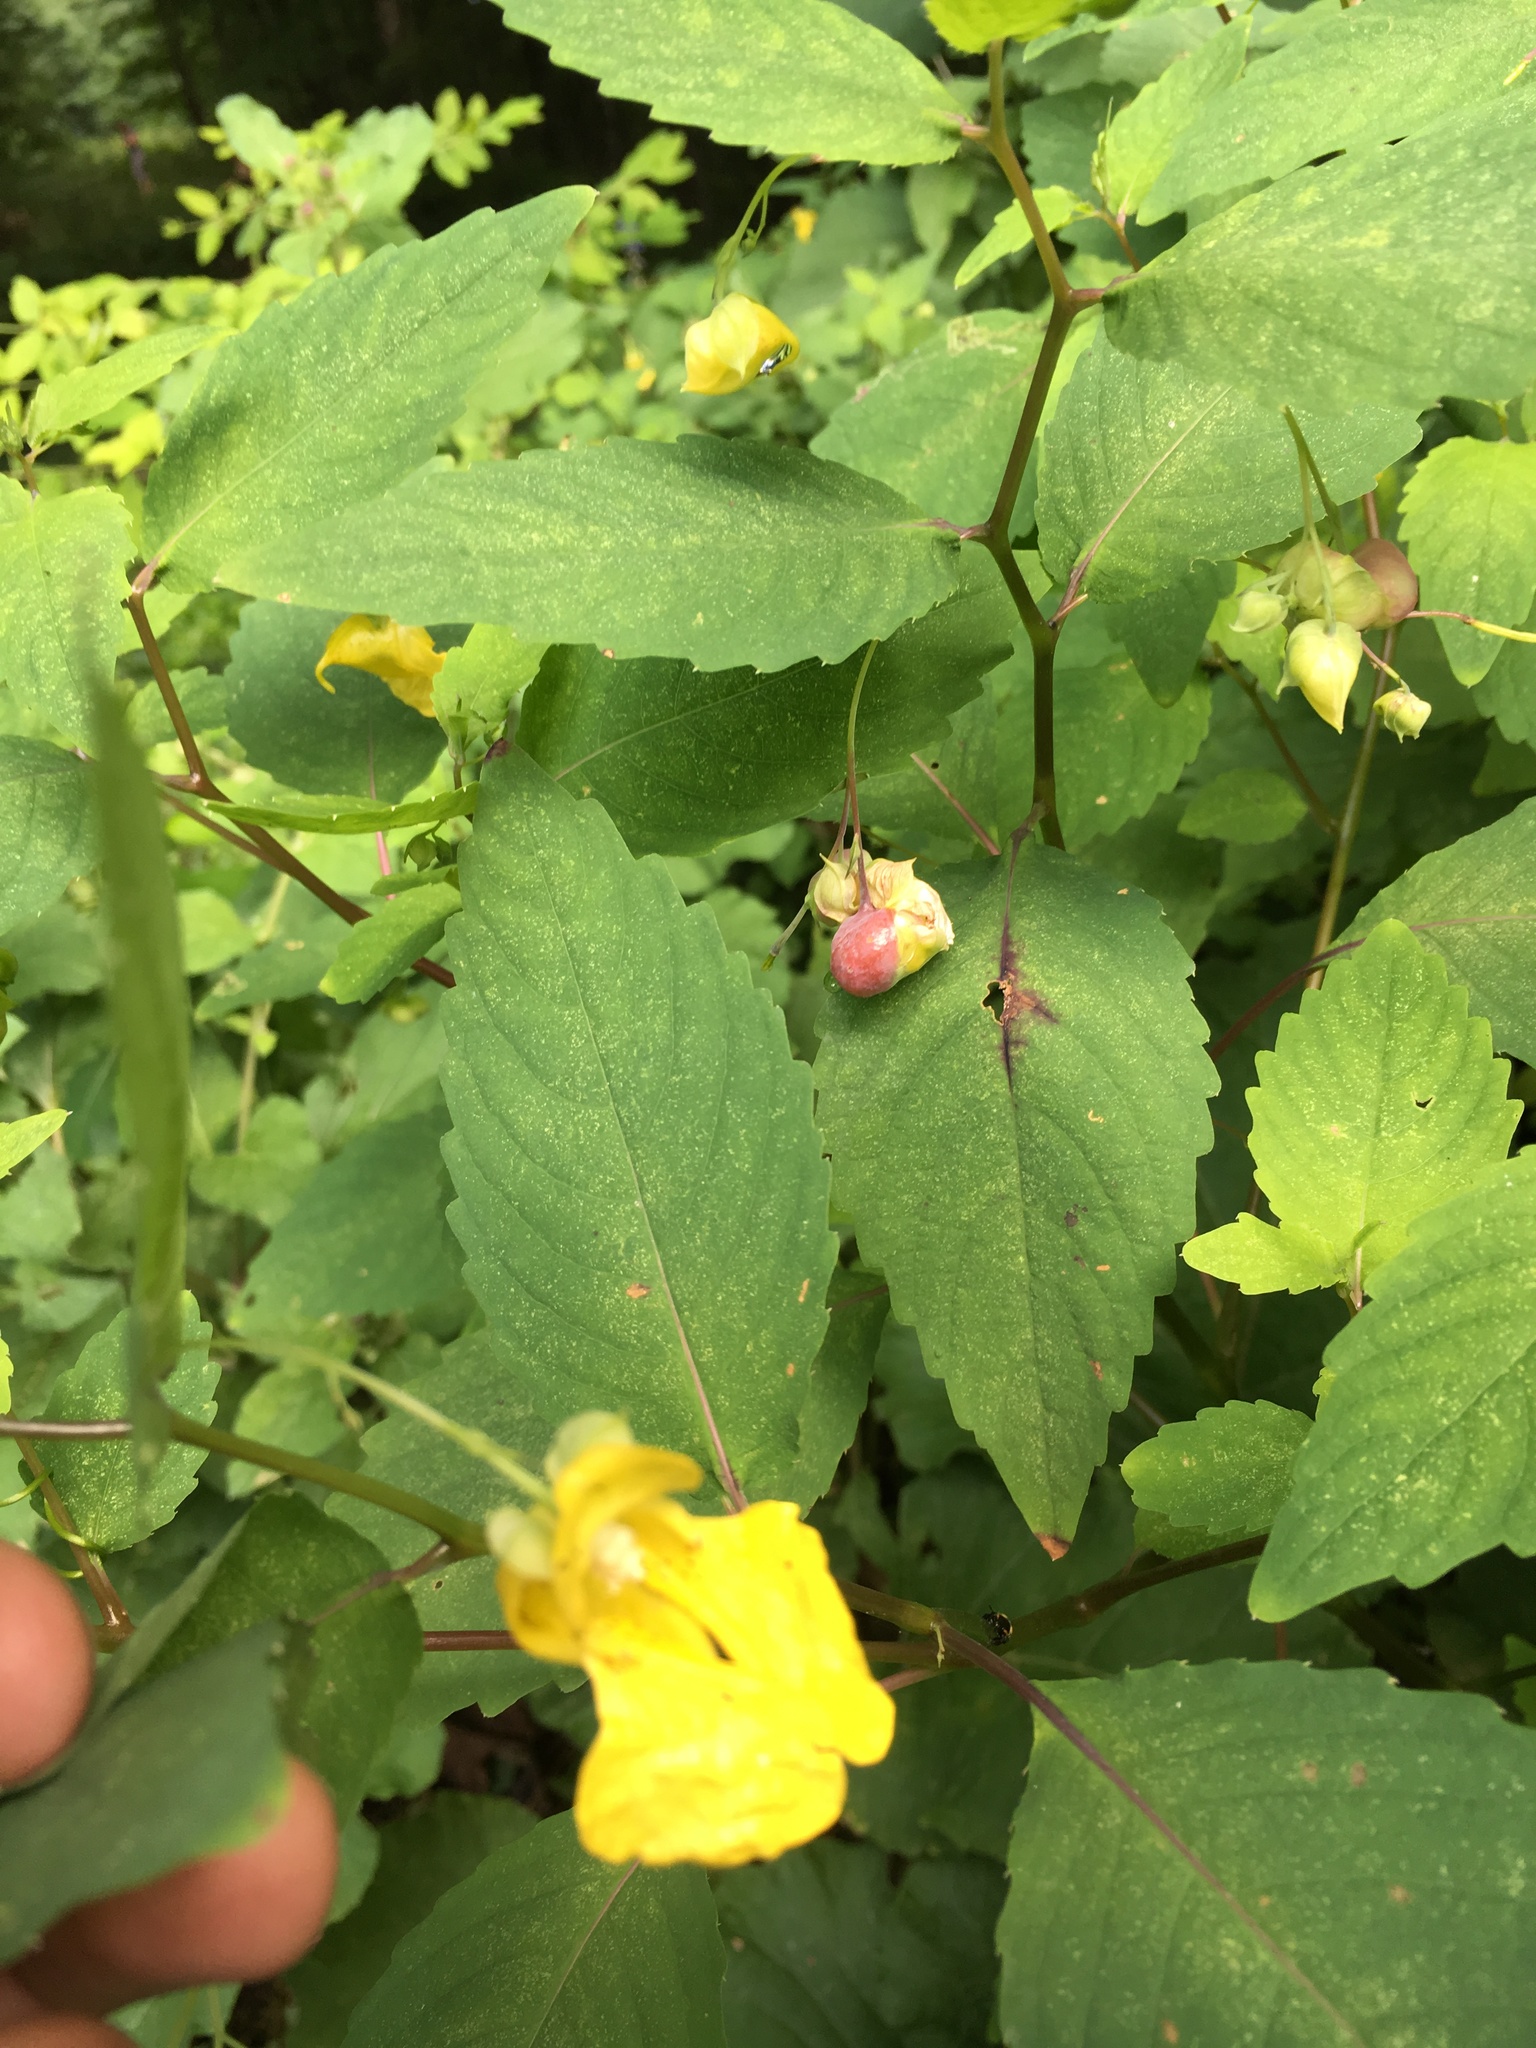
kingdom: Animalia
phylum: Arthropoda
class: Insecta
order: Diptera
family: Cecidomyiidae
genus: Schizomyia
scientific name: Schizomyia impatientis
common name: Jewelweed gall midge
